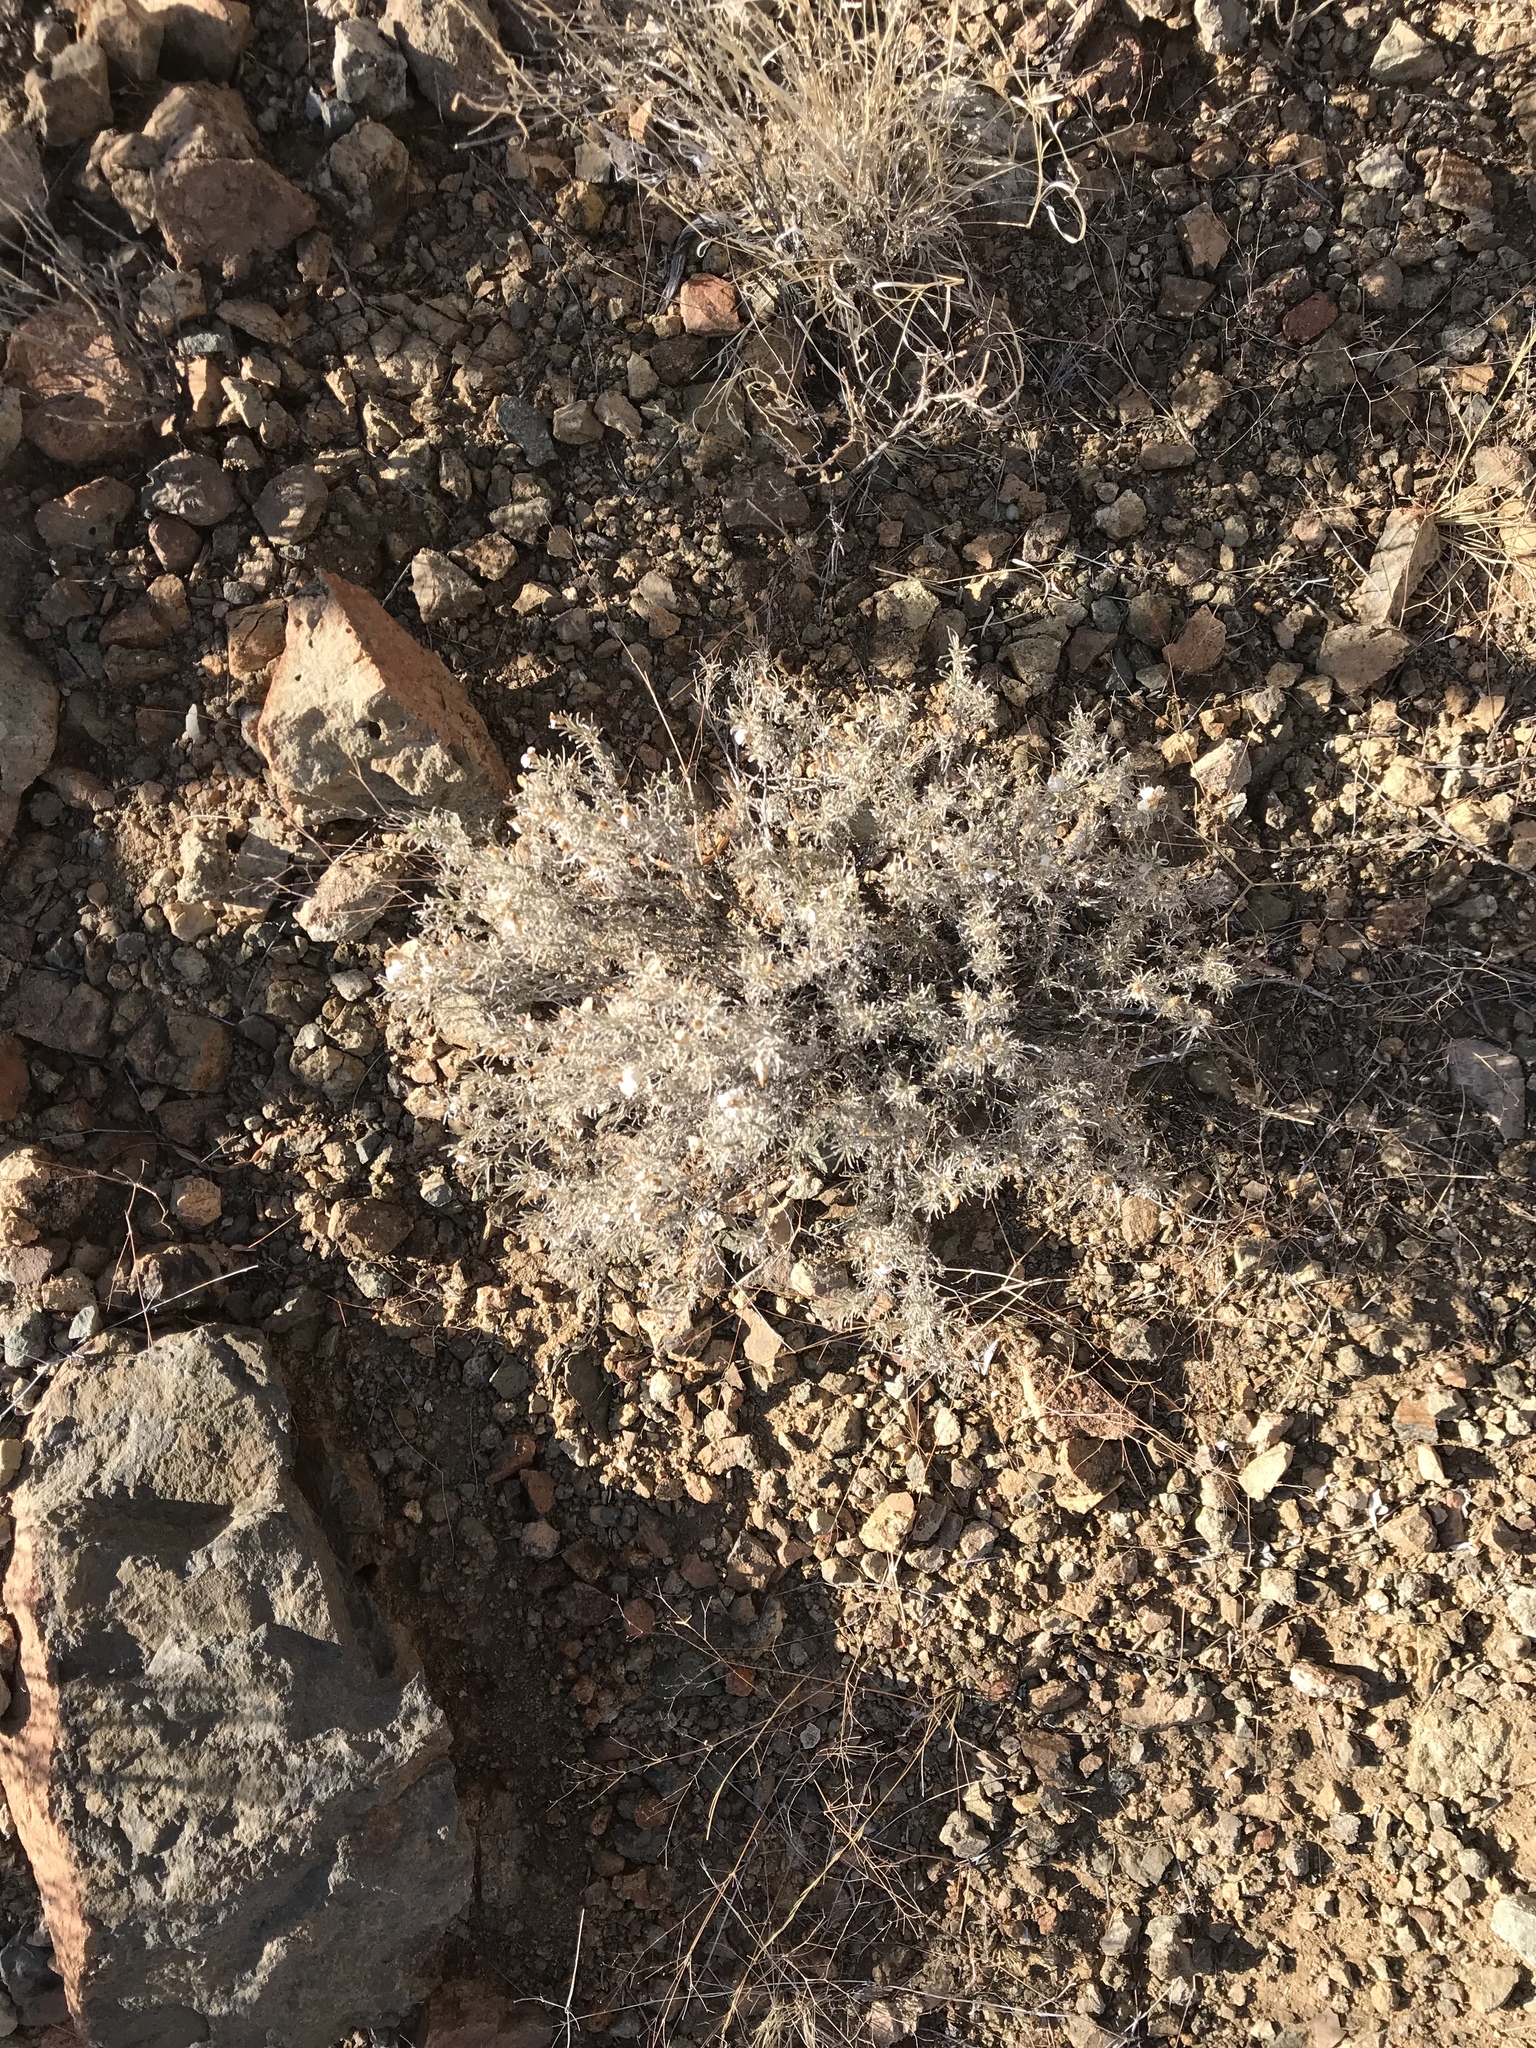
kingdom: Plantae
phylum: Tracheophyta
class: Magnoliopsida
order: Asterales
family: Asteraceae
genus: Zinnia
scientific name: Zinnia acerosa
